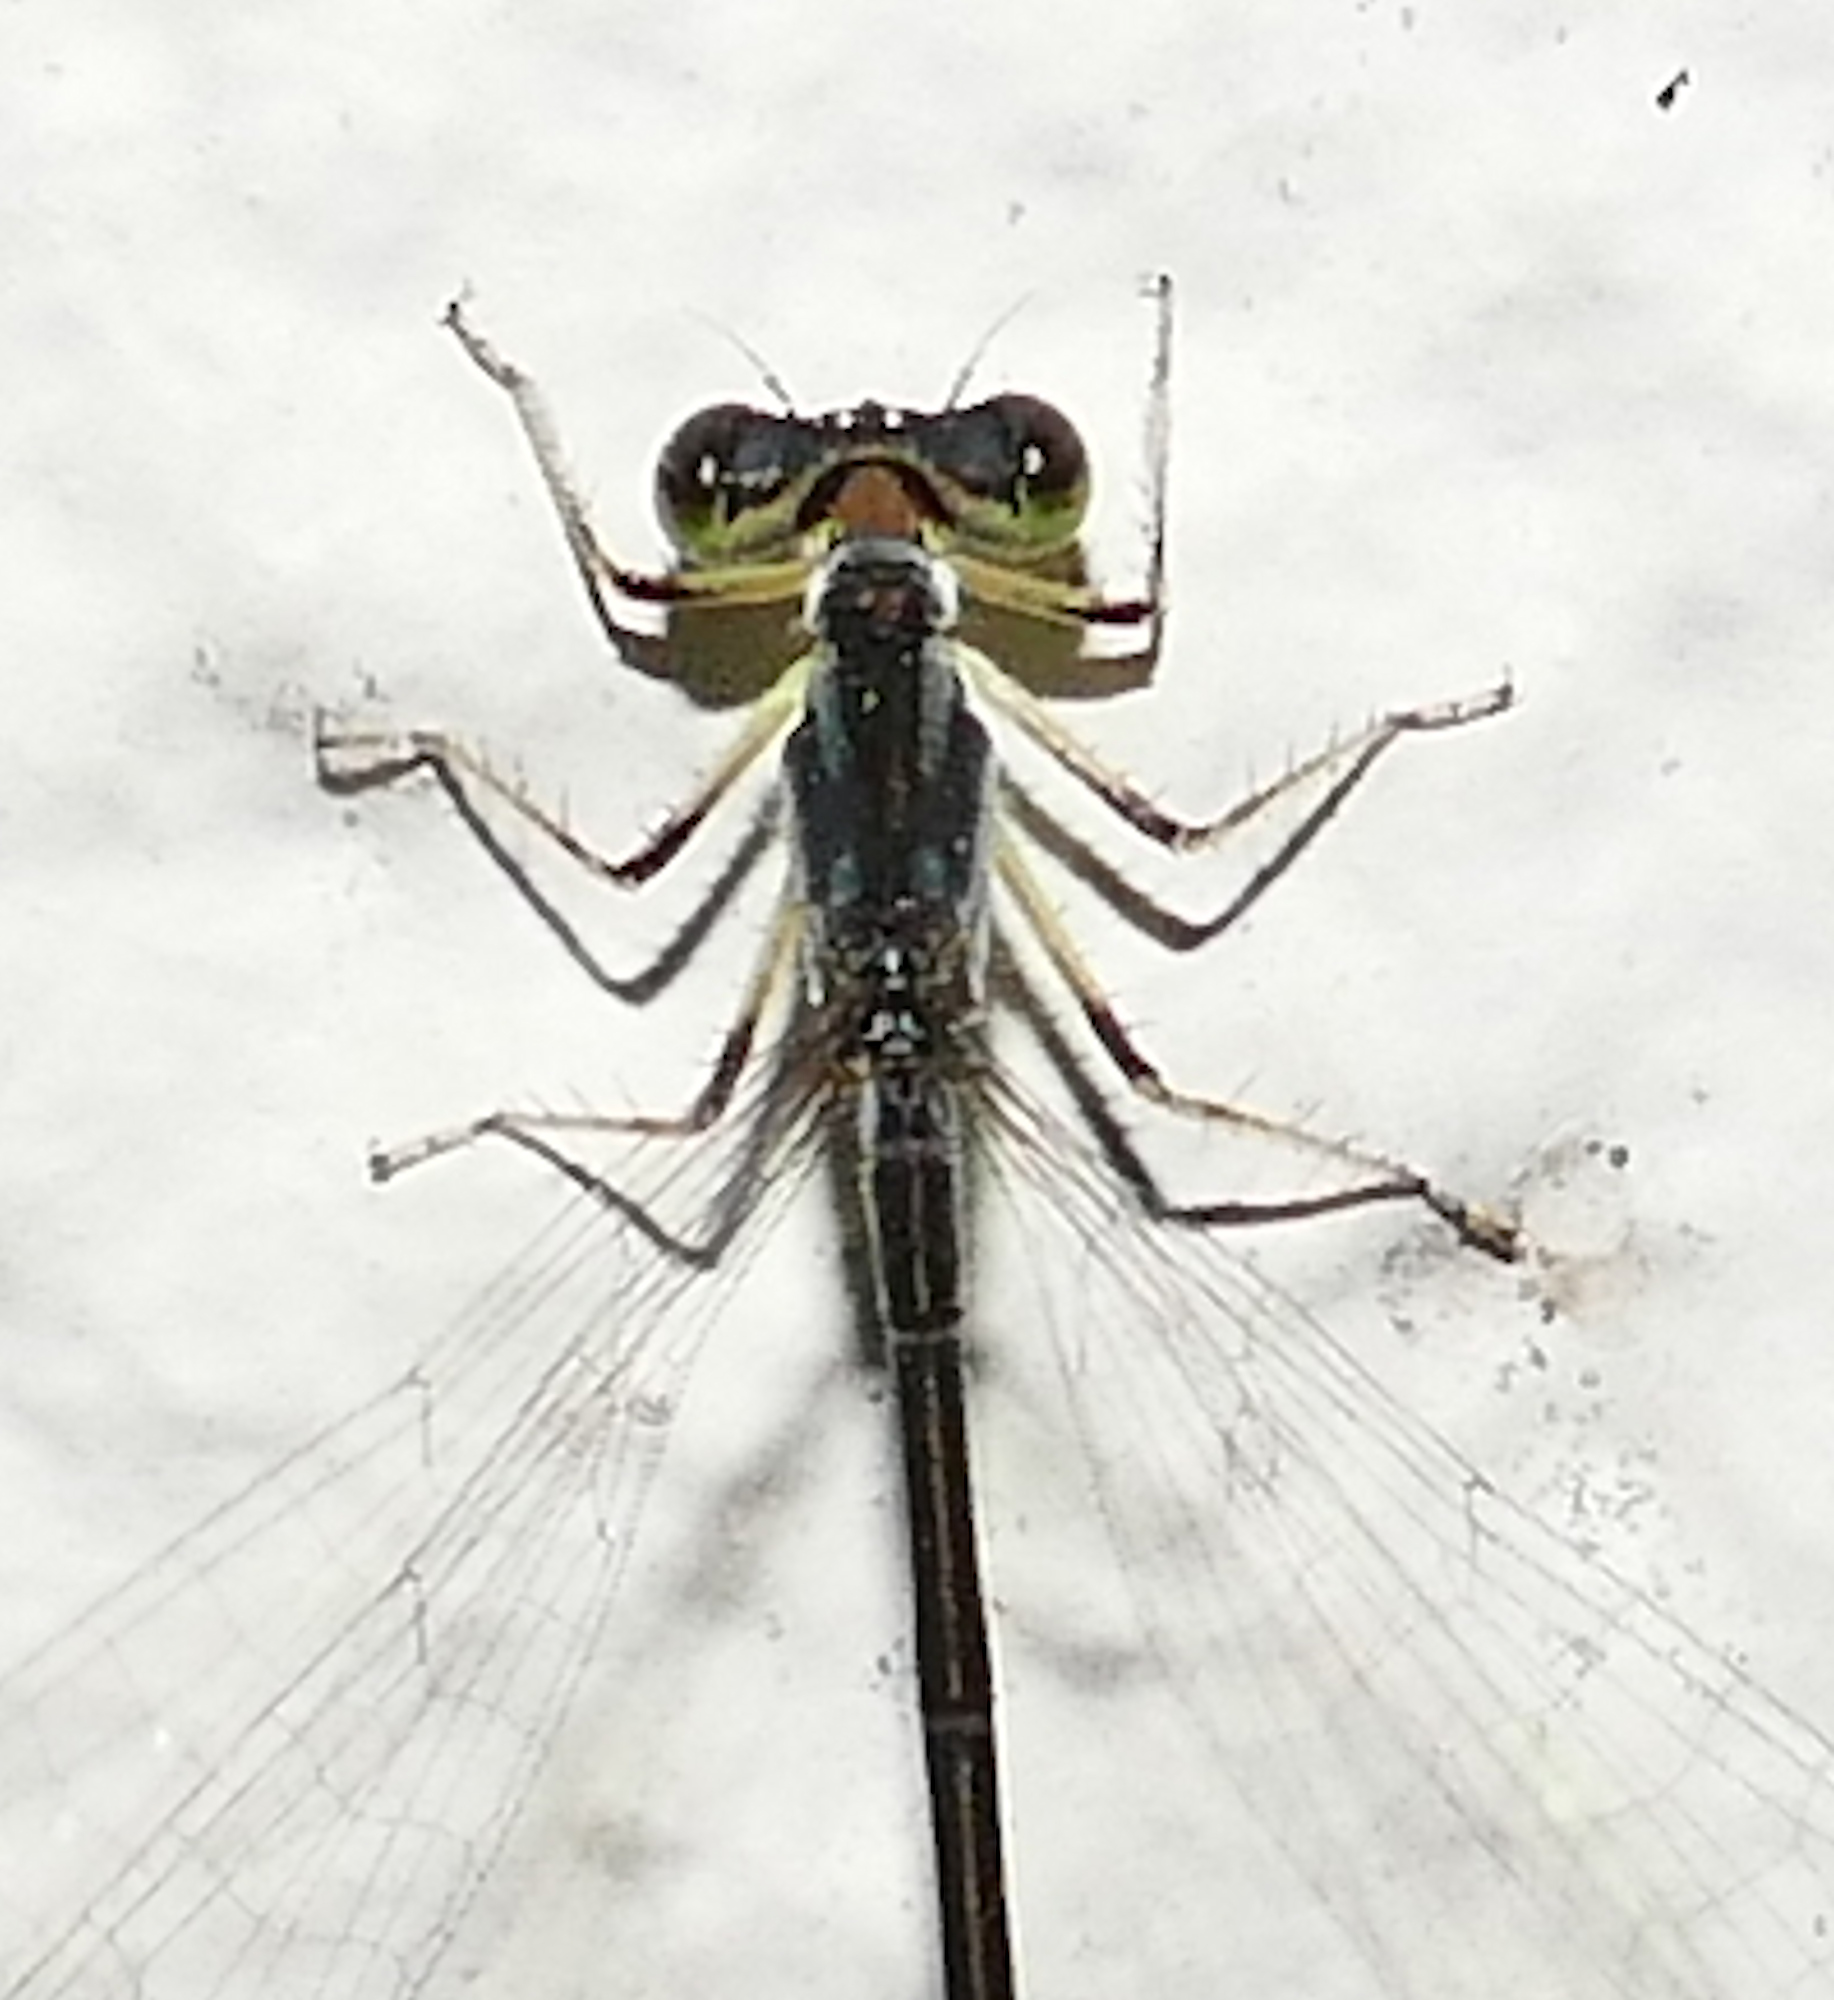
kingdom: Animalia
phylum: Arthropoda
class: Insecta
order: Odonata
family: Coenagrionidae
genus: Ischnura
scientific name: Ischnura posita
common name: Fragile forktail
